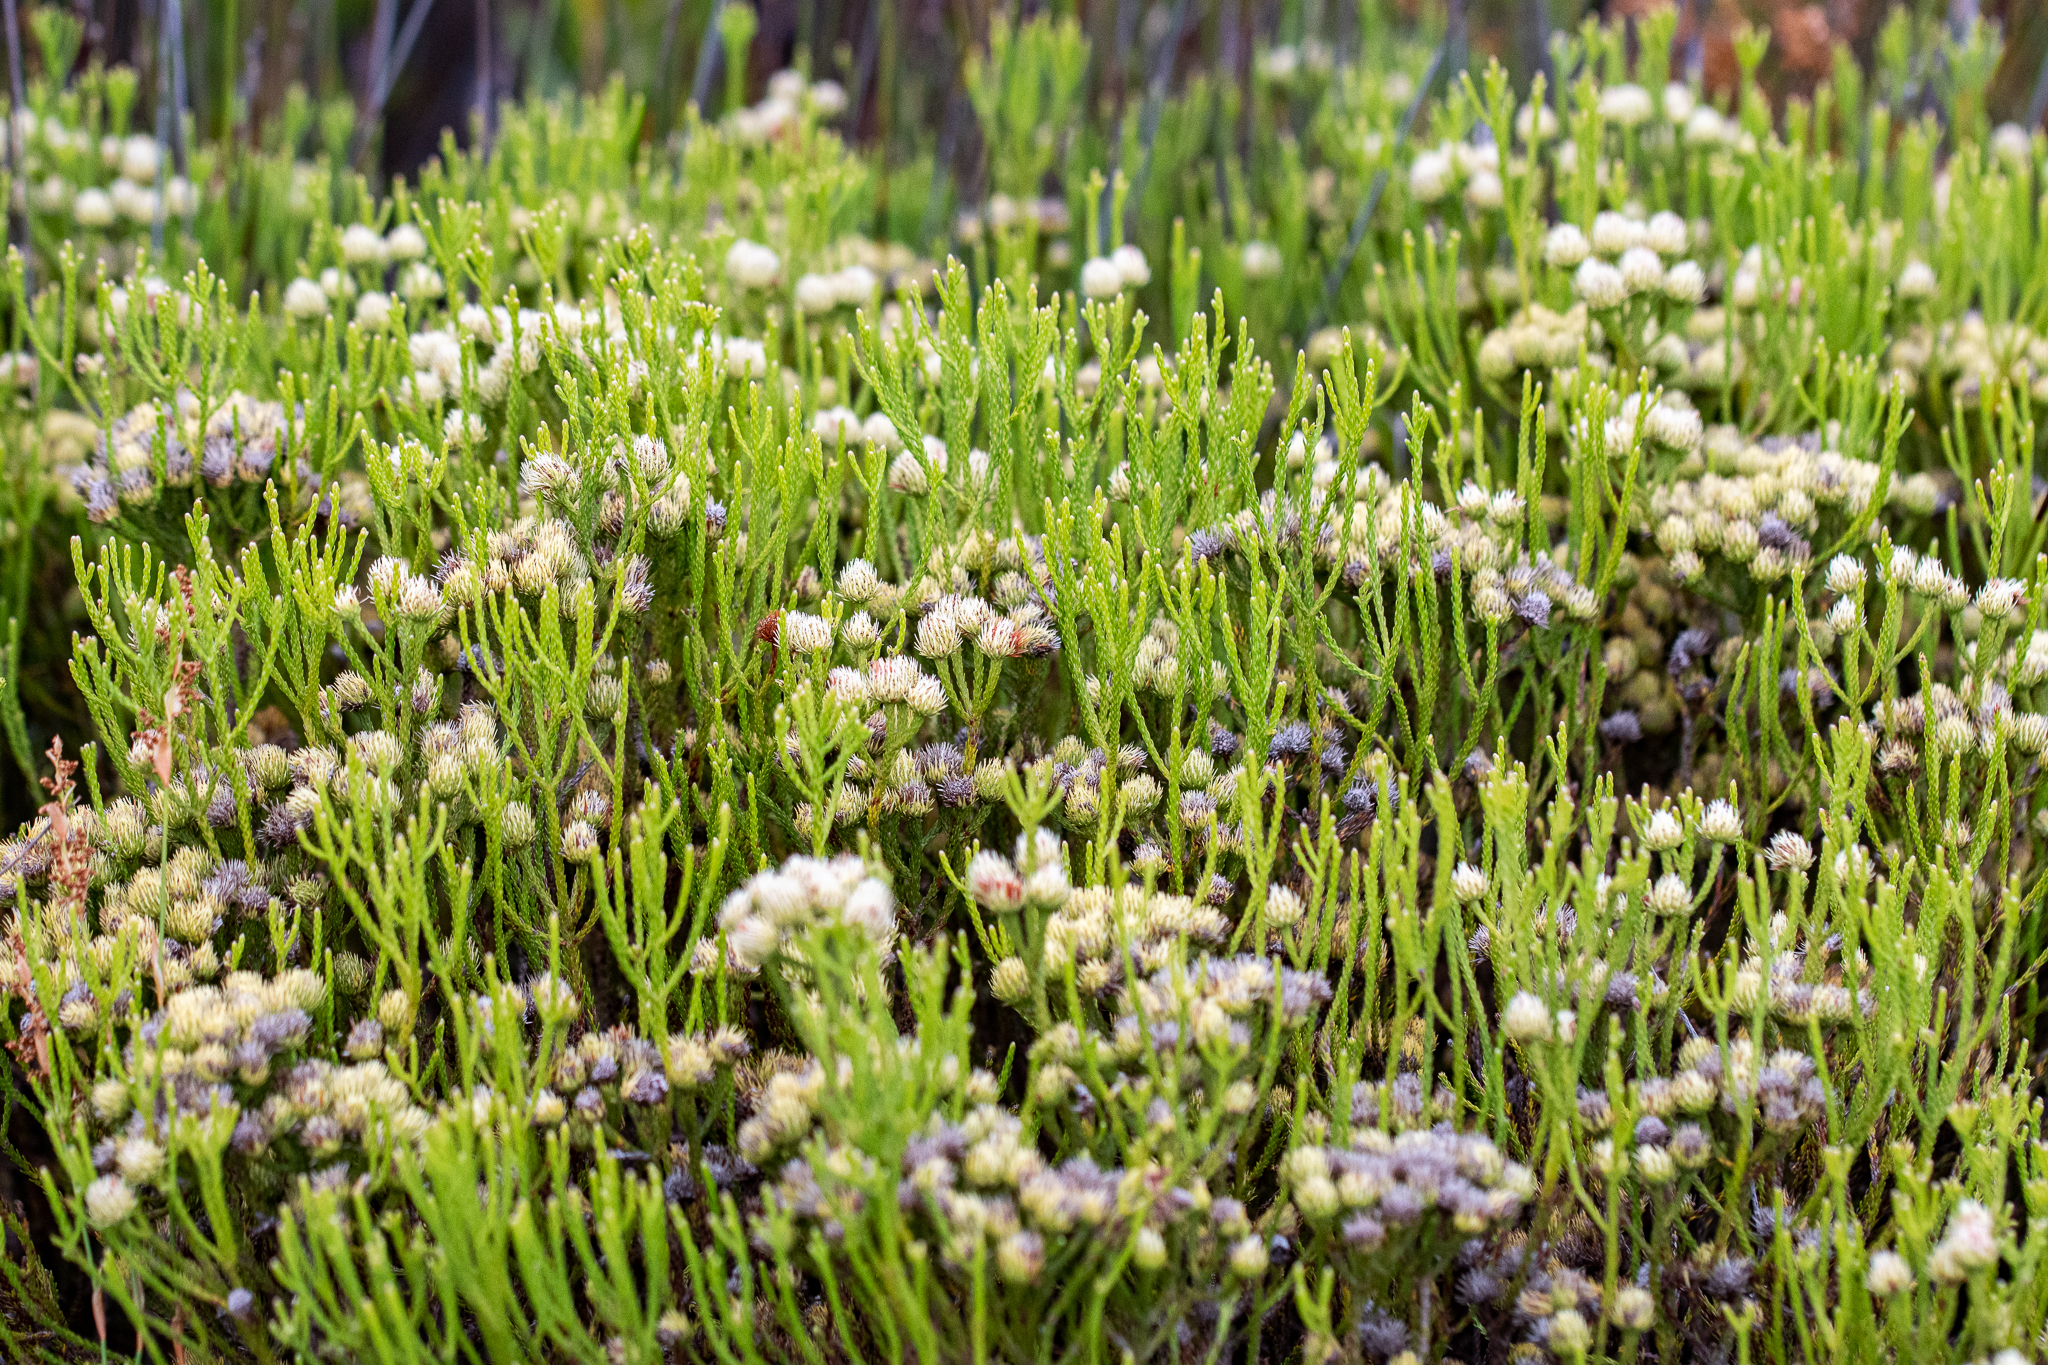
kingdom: Plantae
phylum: Tracheophyta
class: Magnoliopsida
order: Bruniales
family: Bruniaceae
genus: Brunia
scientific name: Brunia paleacea
